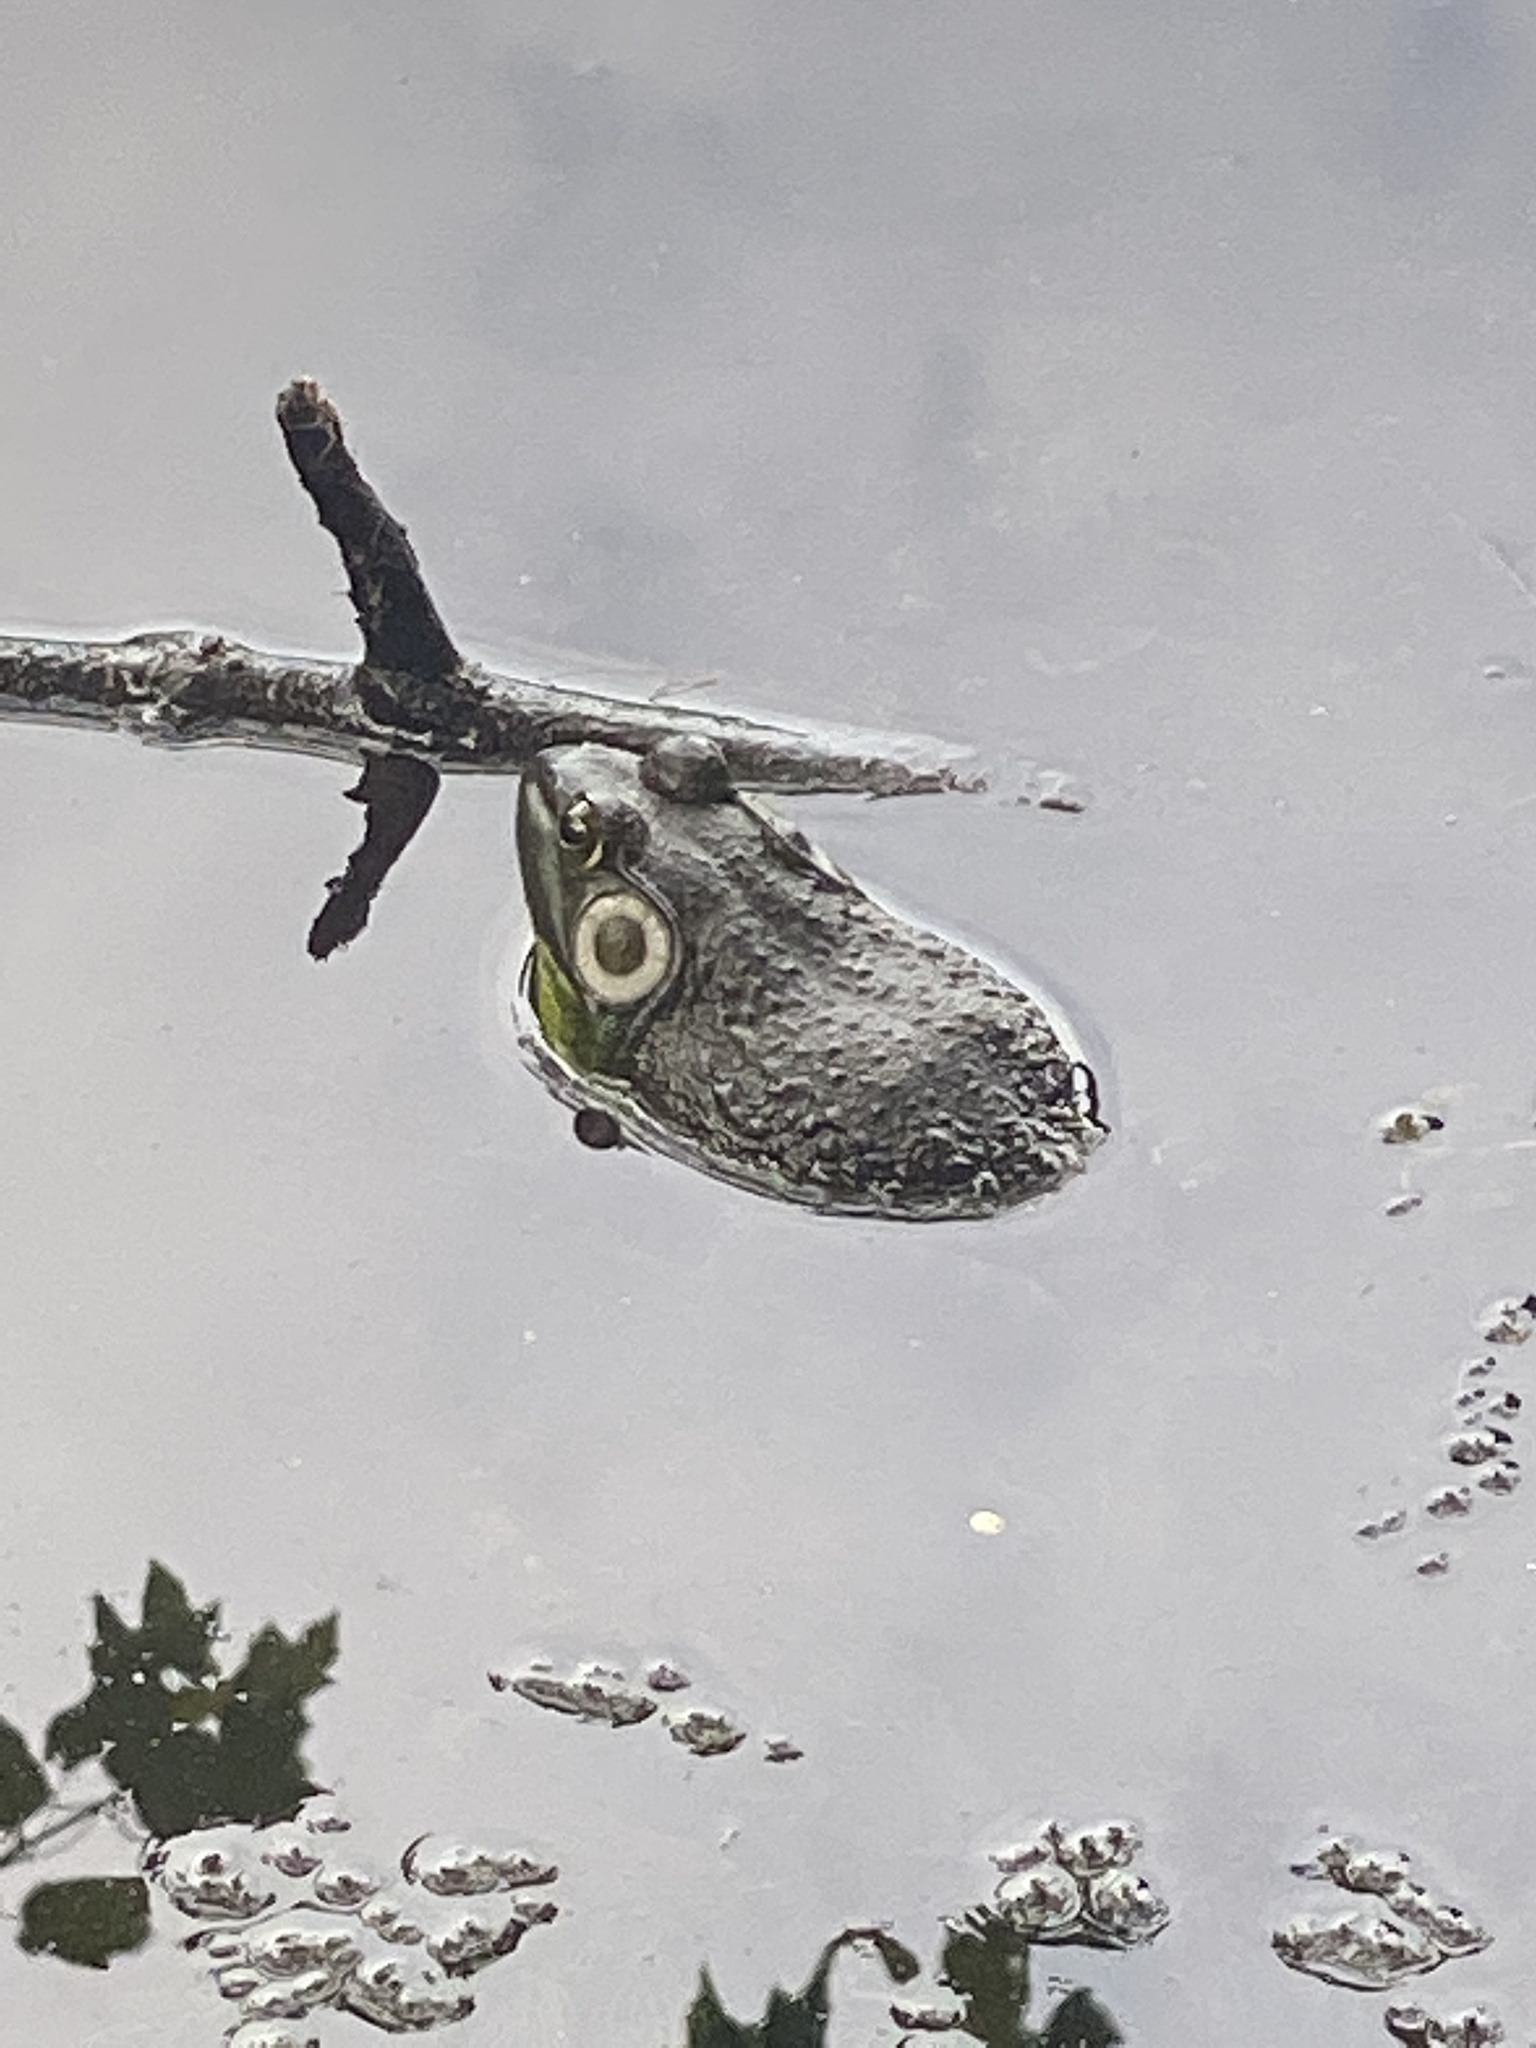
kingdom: Animalia
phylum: Chordata
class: Amphibia
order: Anura
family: Ranidae
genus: Lithobates
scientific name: Lithobates catesbeianus
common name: American bullfrog
